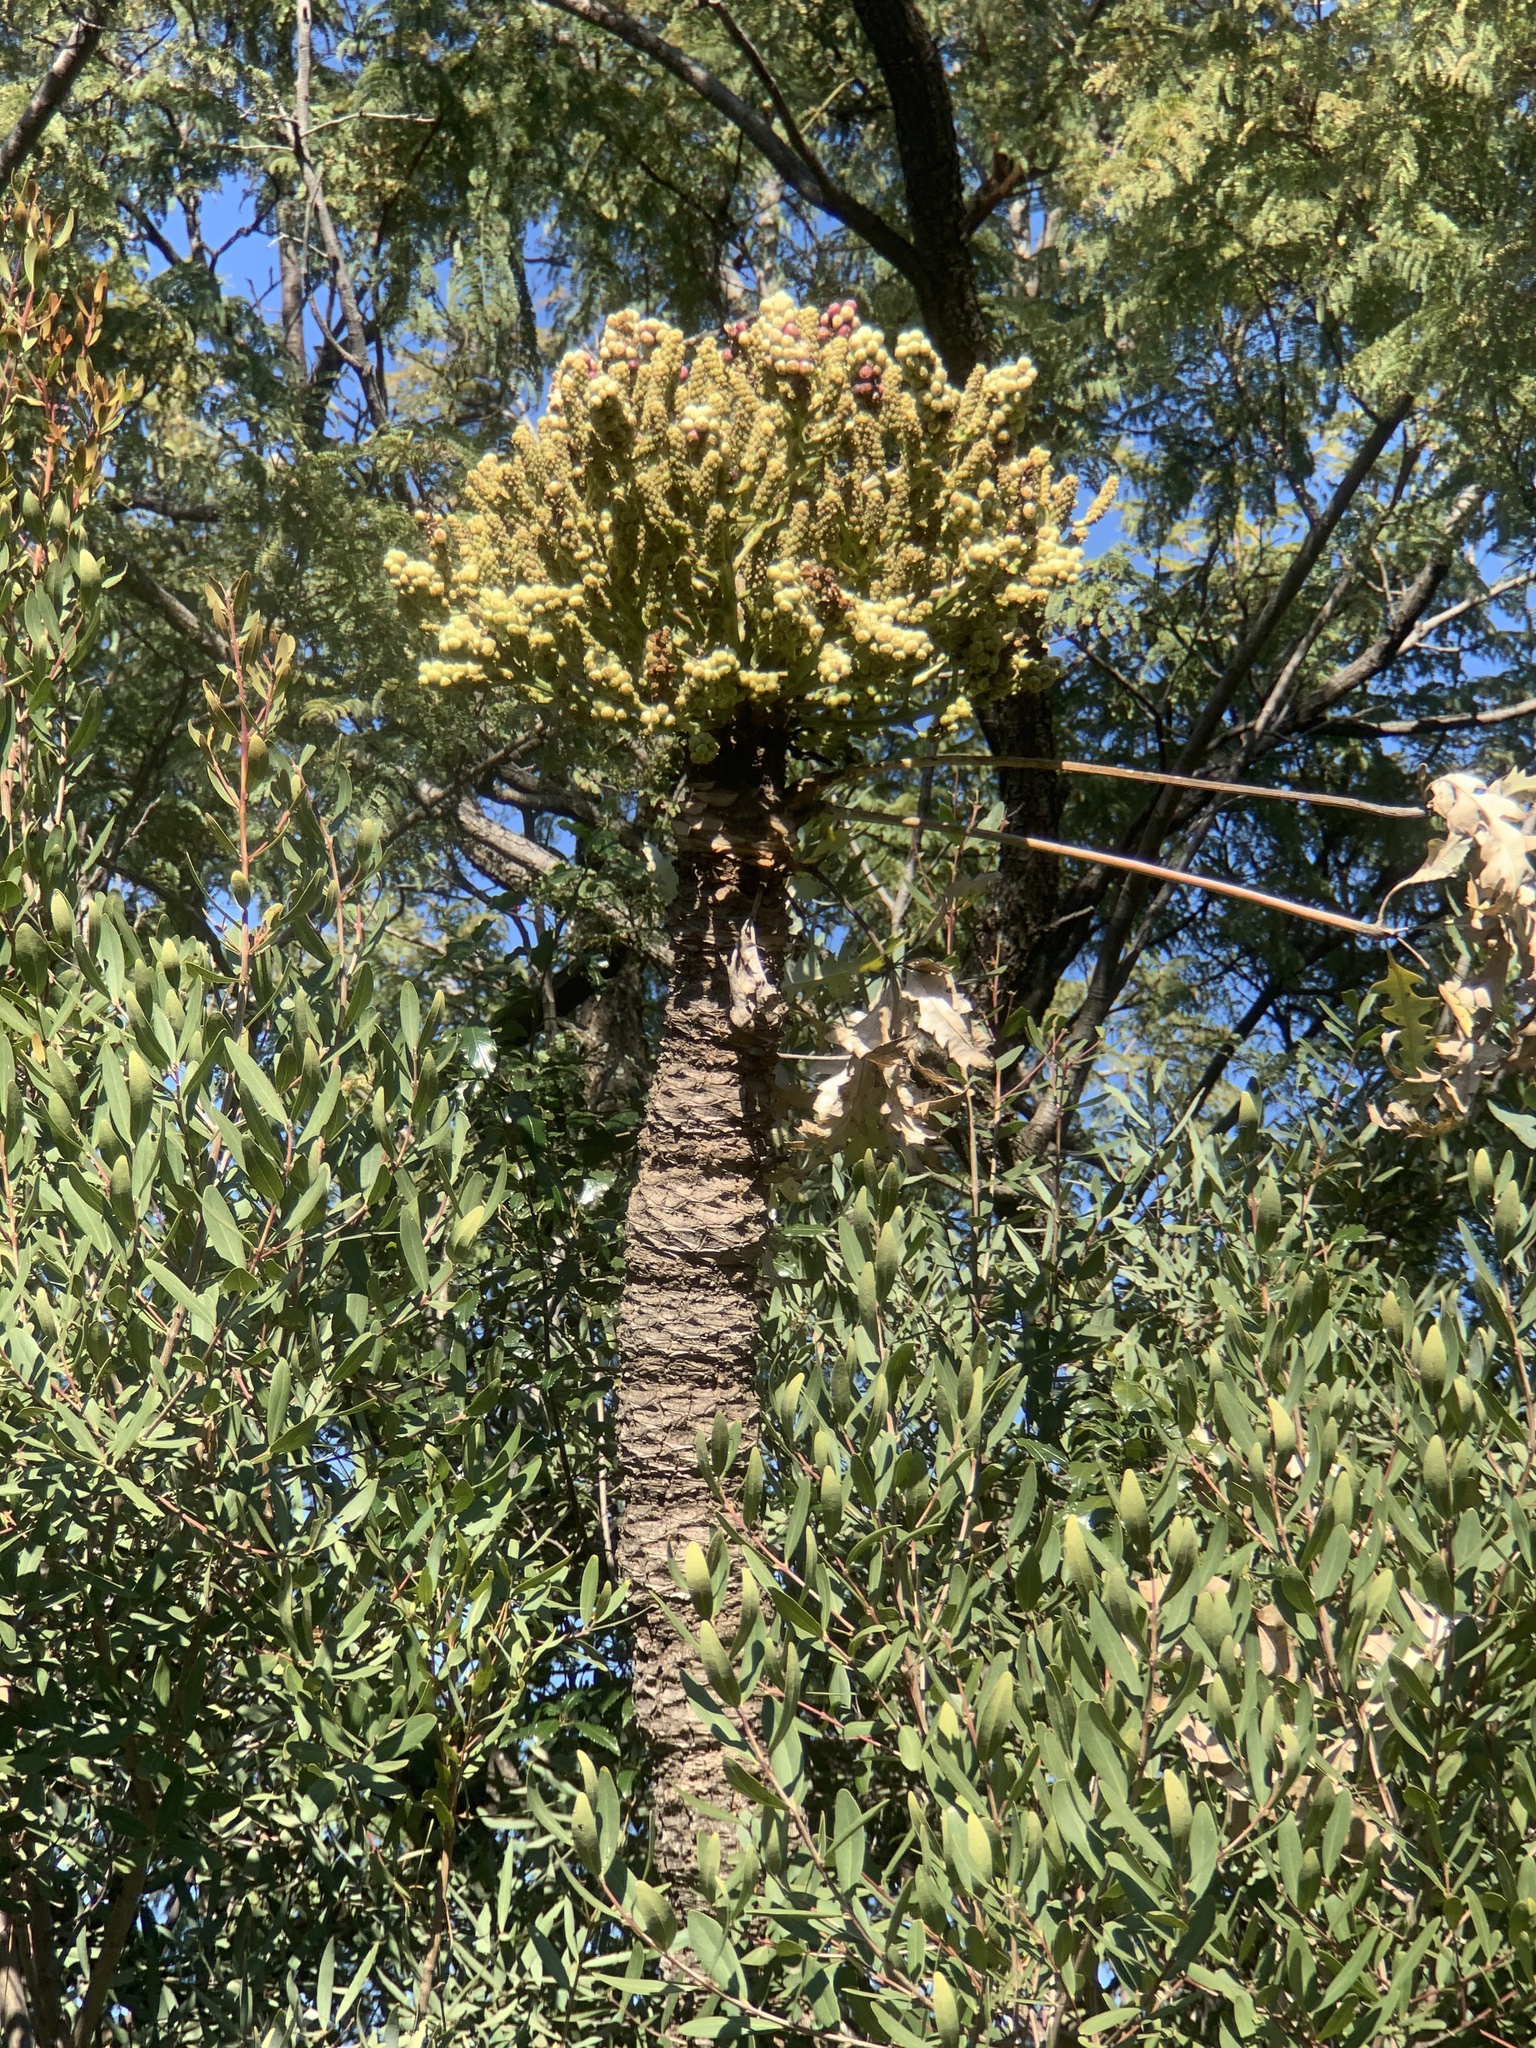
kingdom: Plantae
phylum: Tracheophyta
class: Magnoliopsida
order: Apiales
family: Araliaceae
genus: Cussonia
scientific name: Cussonia spicata
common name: Common cabbagetree
